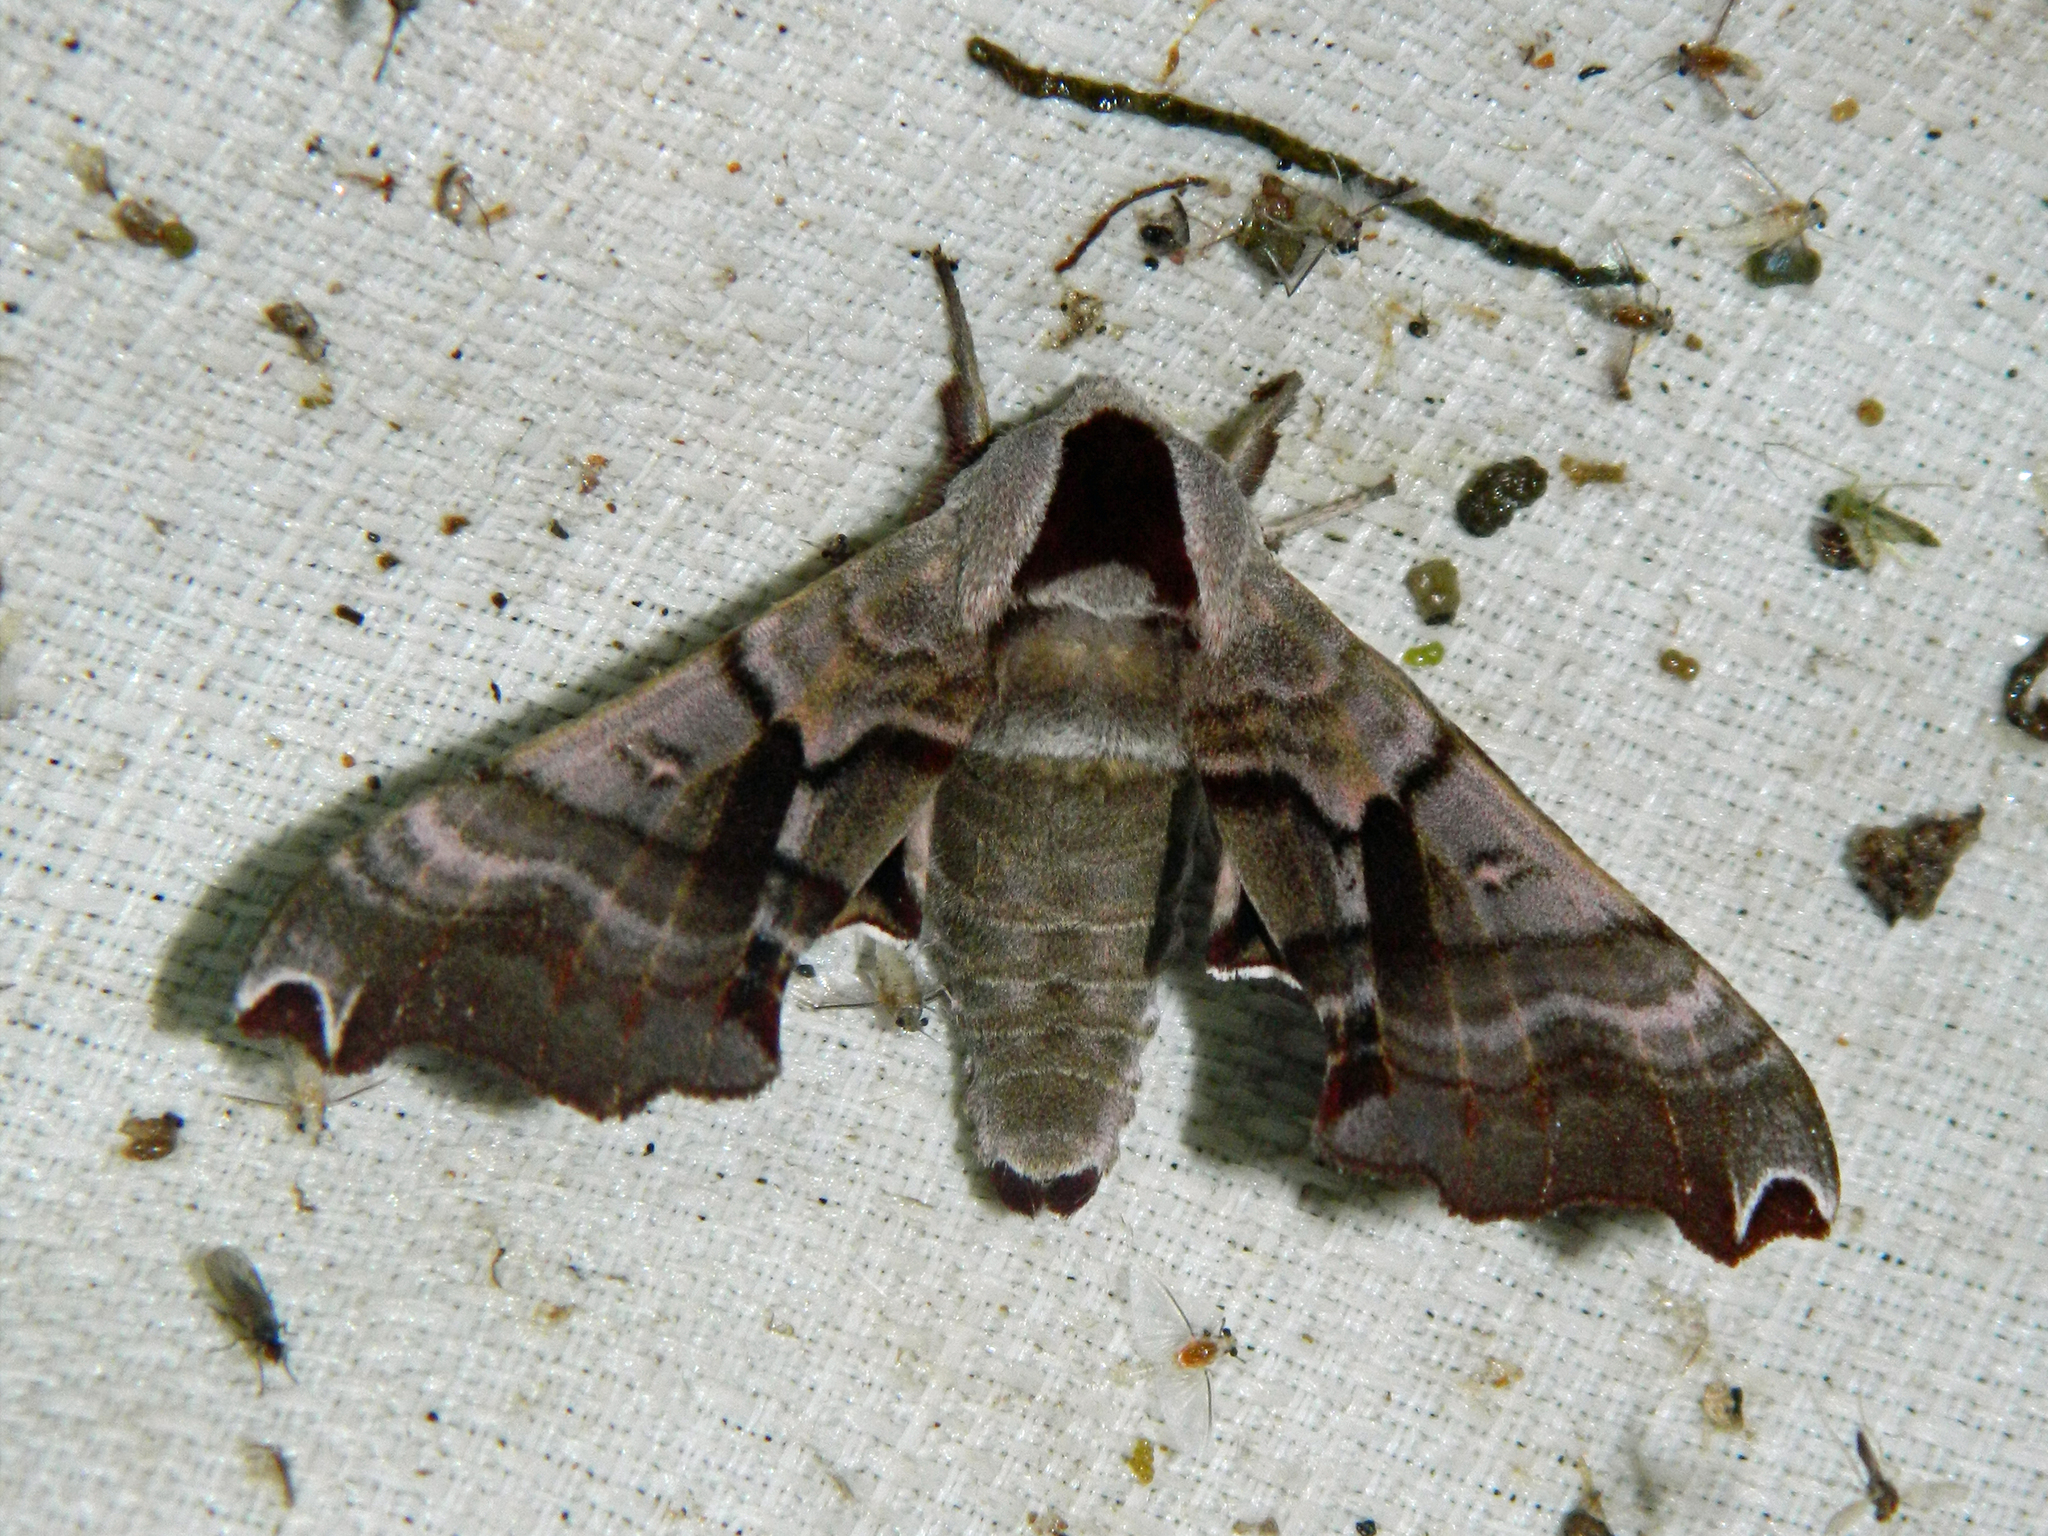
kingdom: Animalia
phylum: Arthropoda
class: Insecta
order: Lepidoptera
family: Sphingidae
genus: Smerinthus
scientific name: Smerinthus jamaicensis
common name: Twin spotted sphinx
